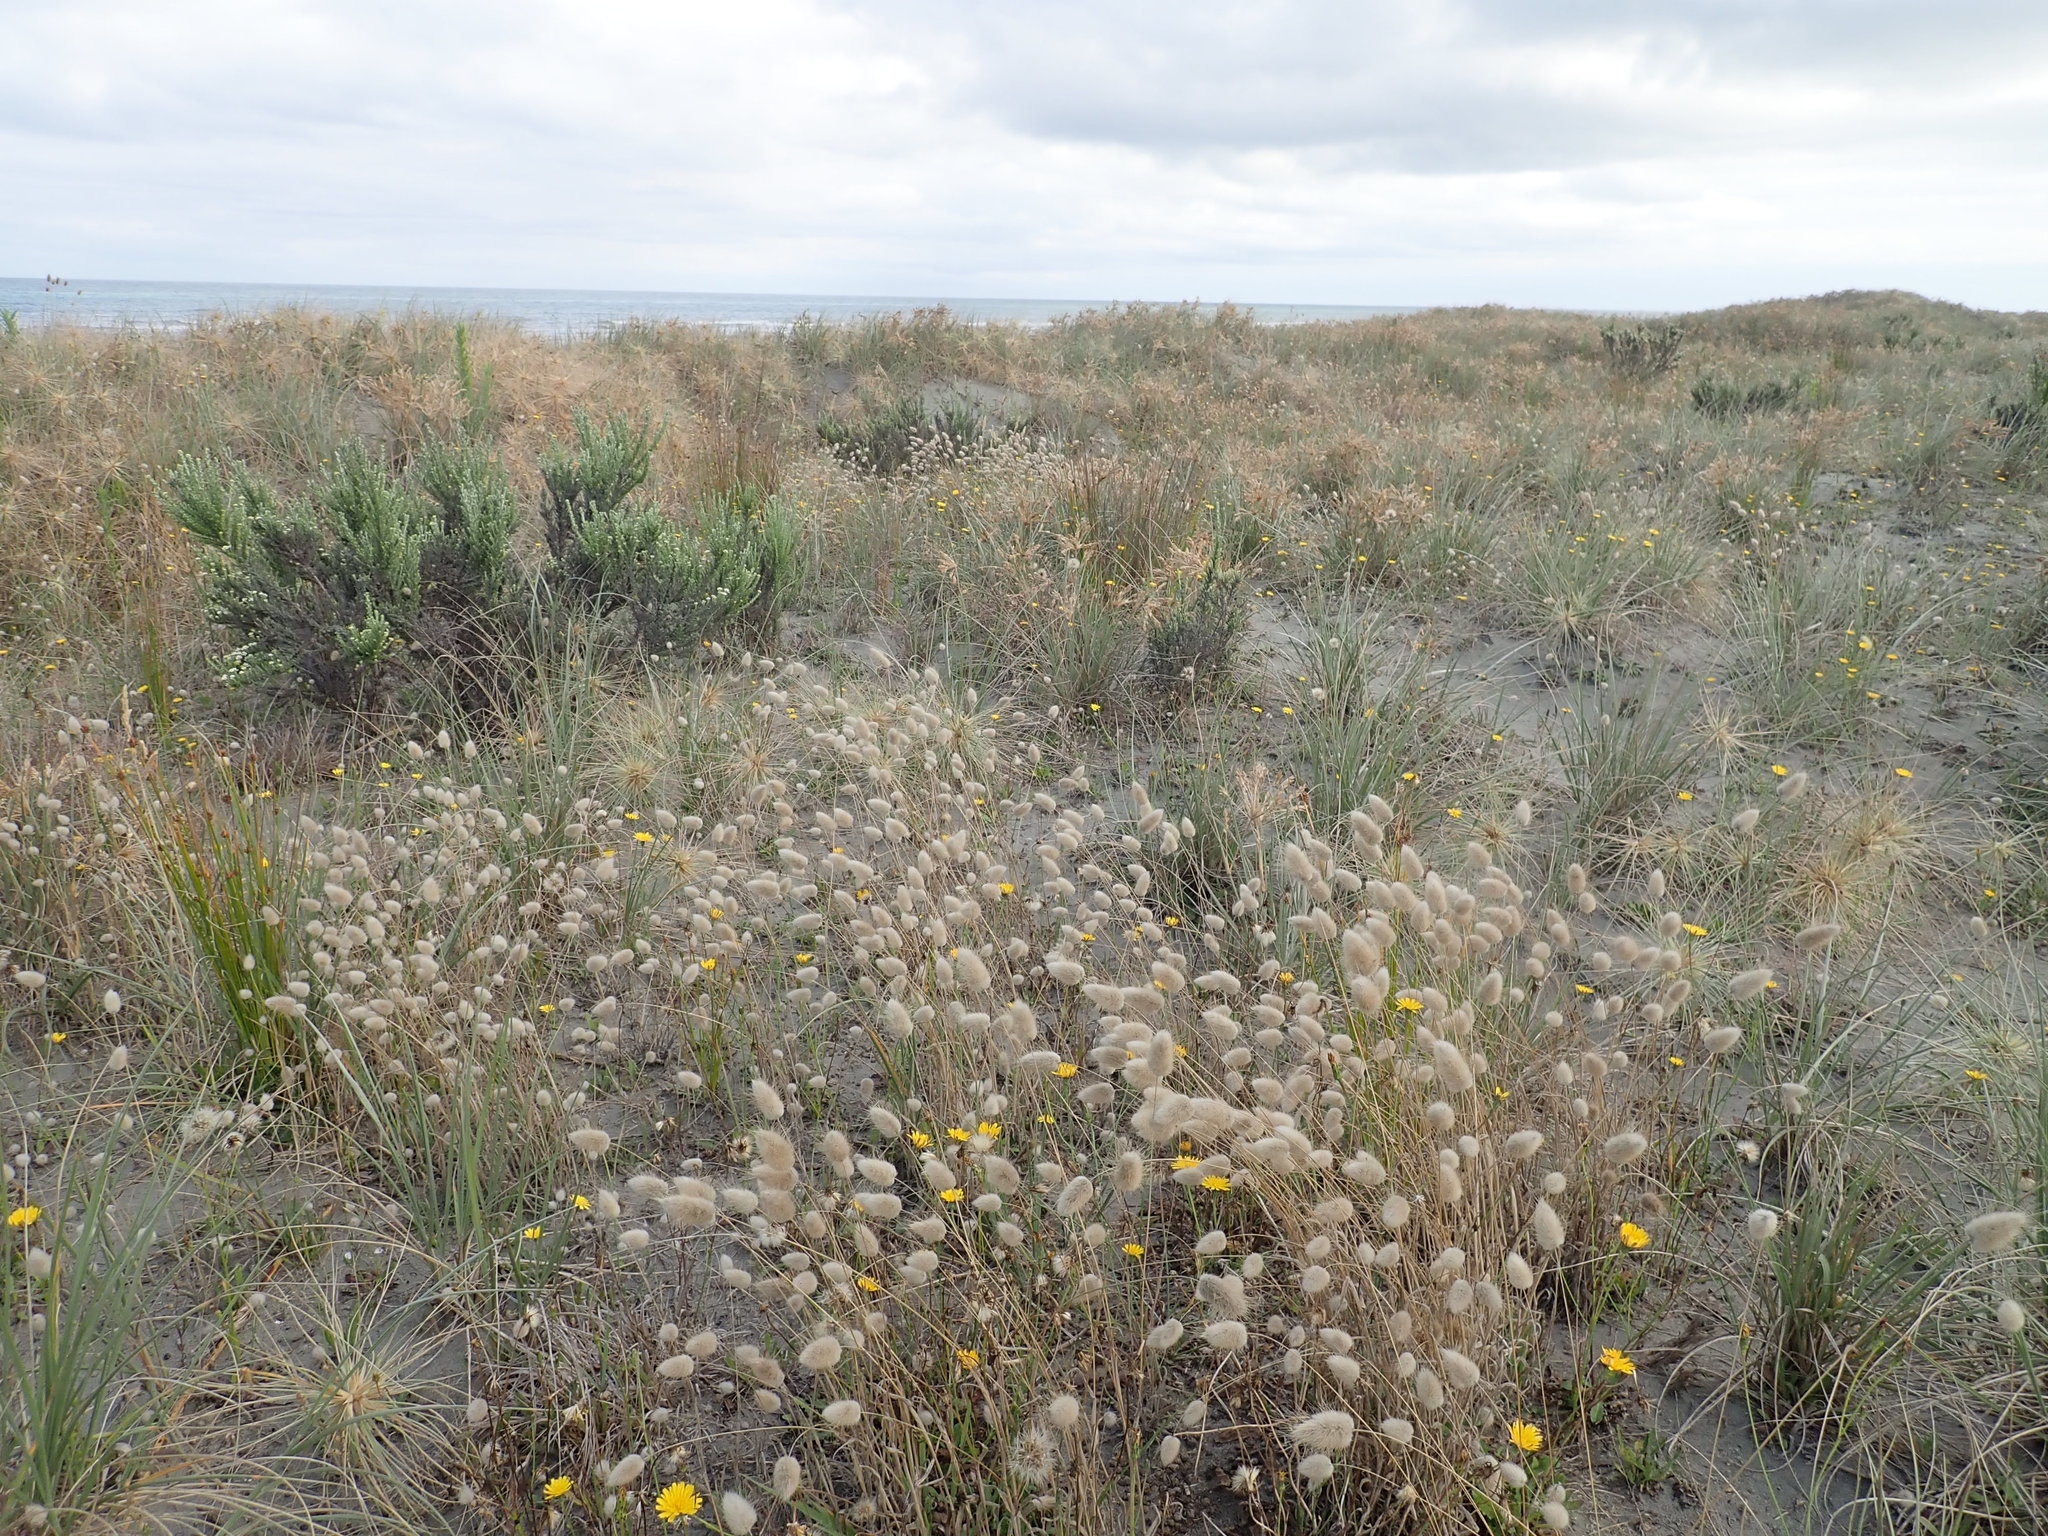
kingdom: Plantae
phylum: Tracheophyta
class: Liliopsida
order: Poales
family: Poaceae
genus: Lagurus
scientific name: Lagurus ovatus
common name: Hare's-tail
